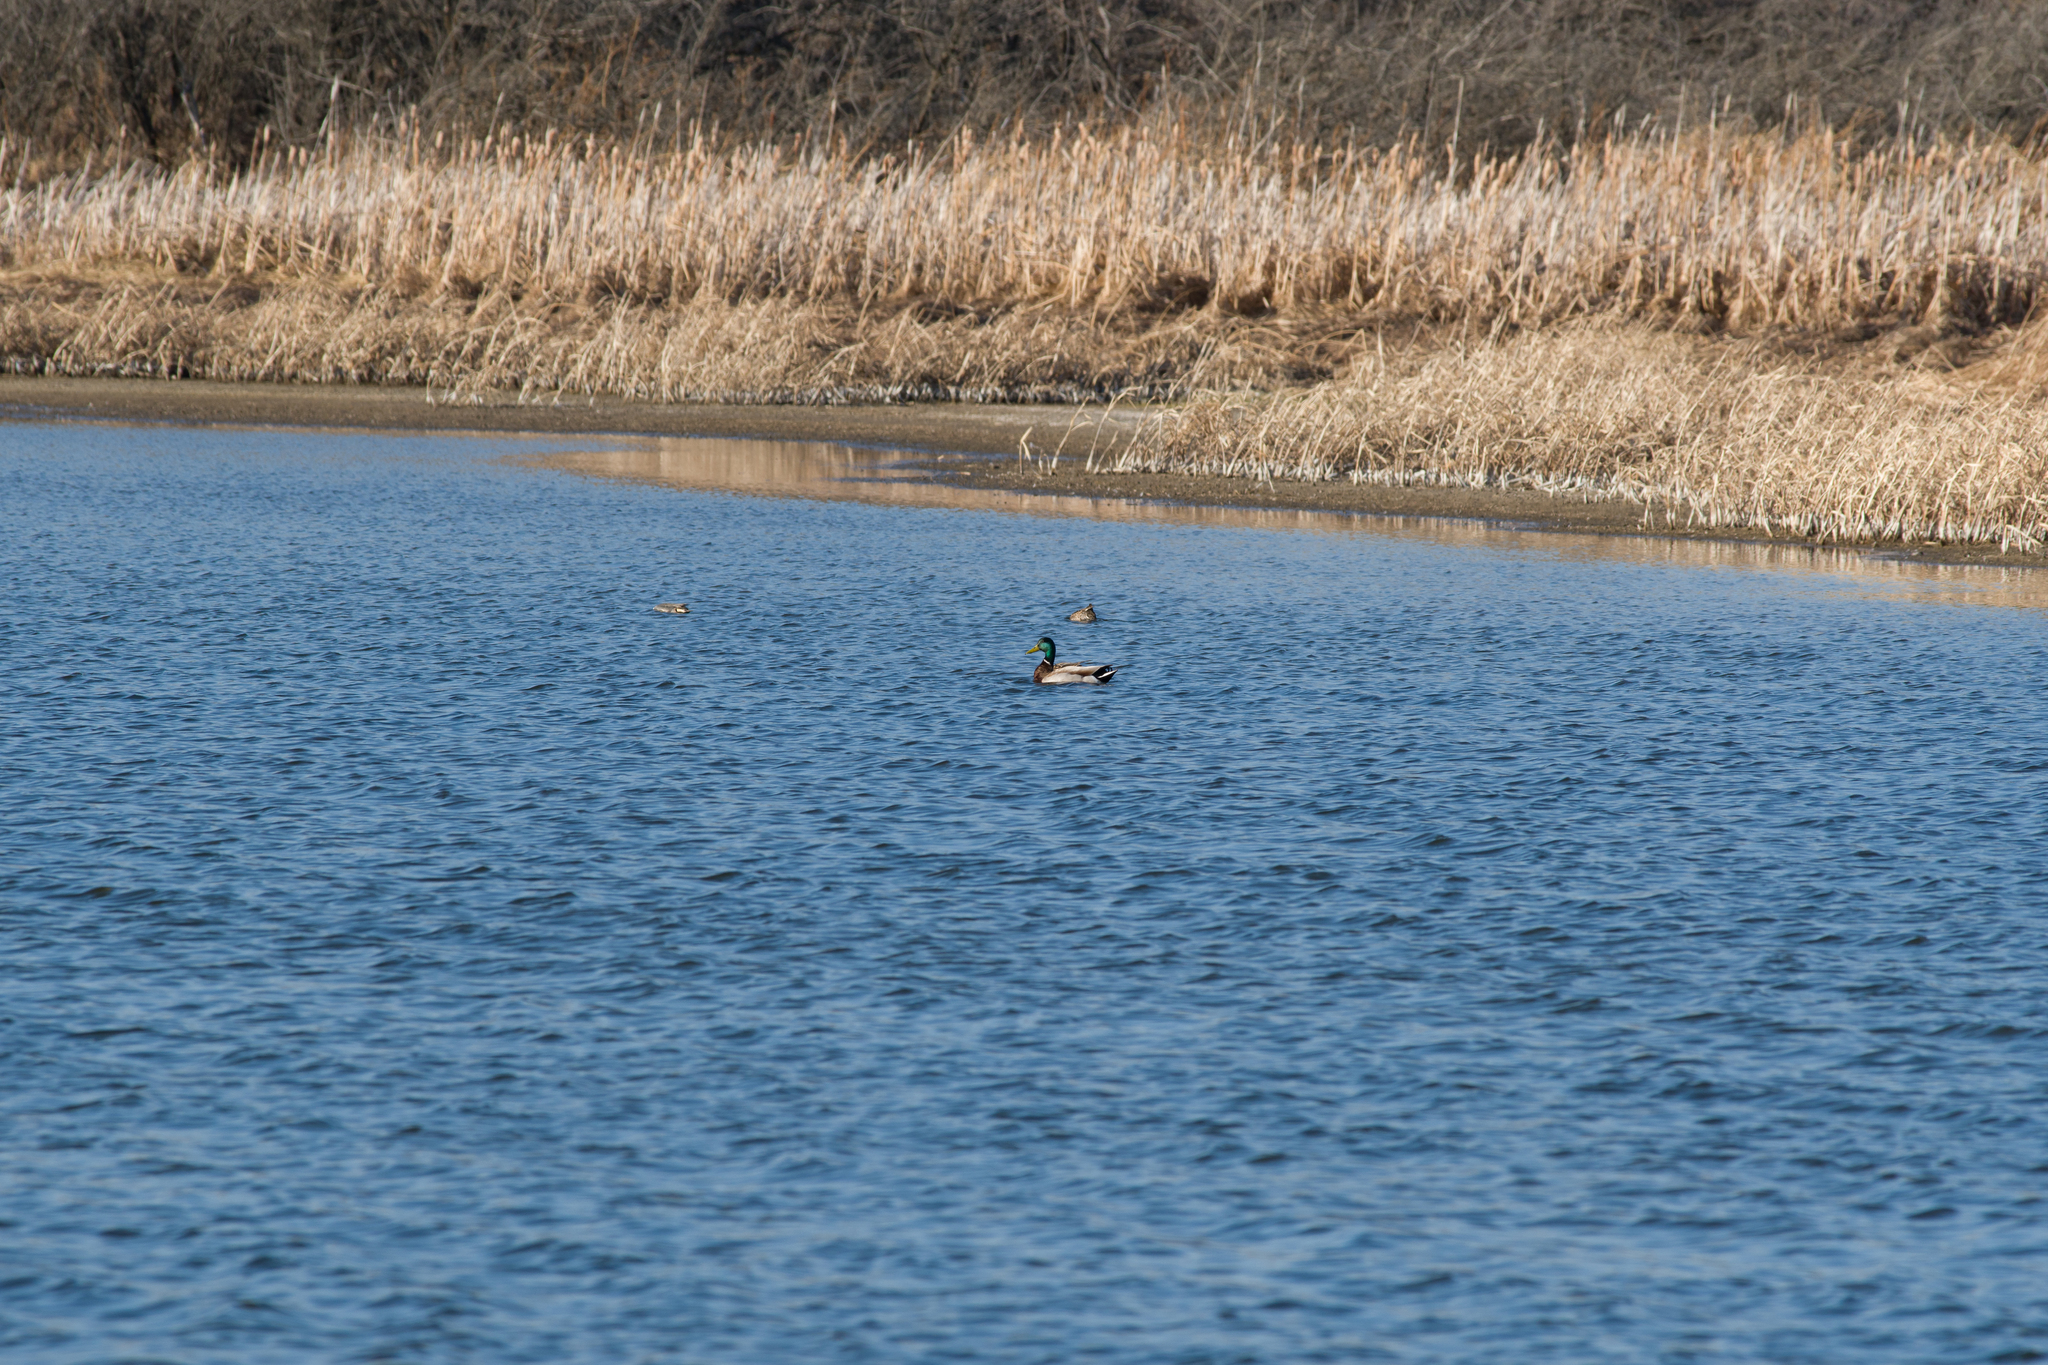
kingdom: Animalia
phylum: Chordata
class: Aves
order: Anseriformes
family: Anatidae
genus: Anas
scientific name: Anas platyrhynchos
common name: Mallard
